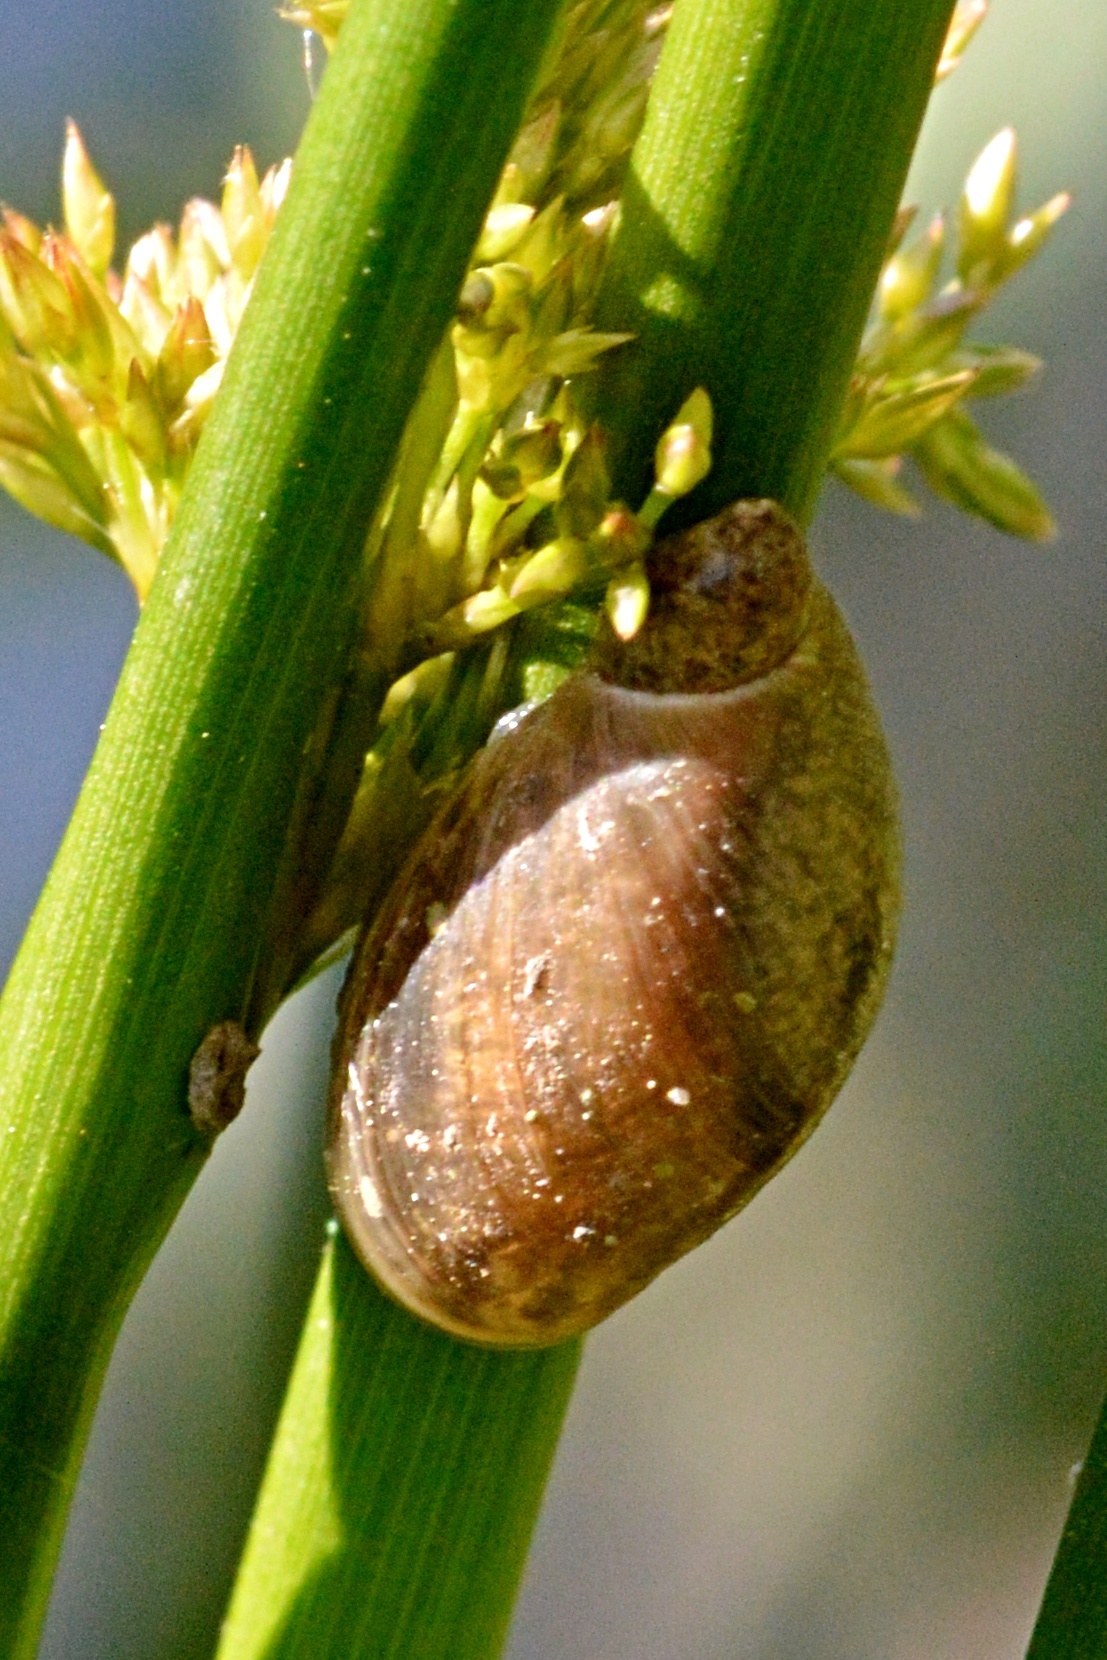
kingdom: Animalia
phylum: Mollusca
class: Gastropoda
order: Stylommatophora
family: Succineidae
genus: Succinea
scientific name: Succinea putris
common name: European ambersnail
